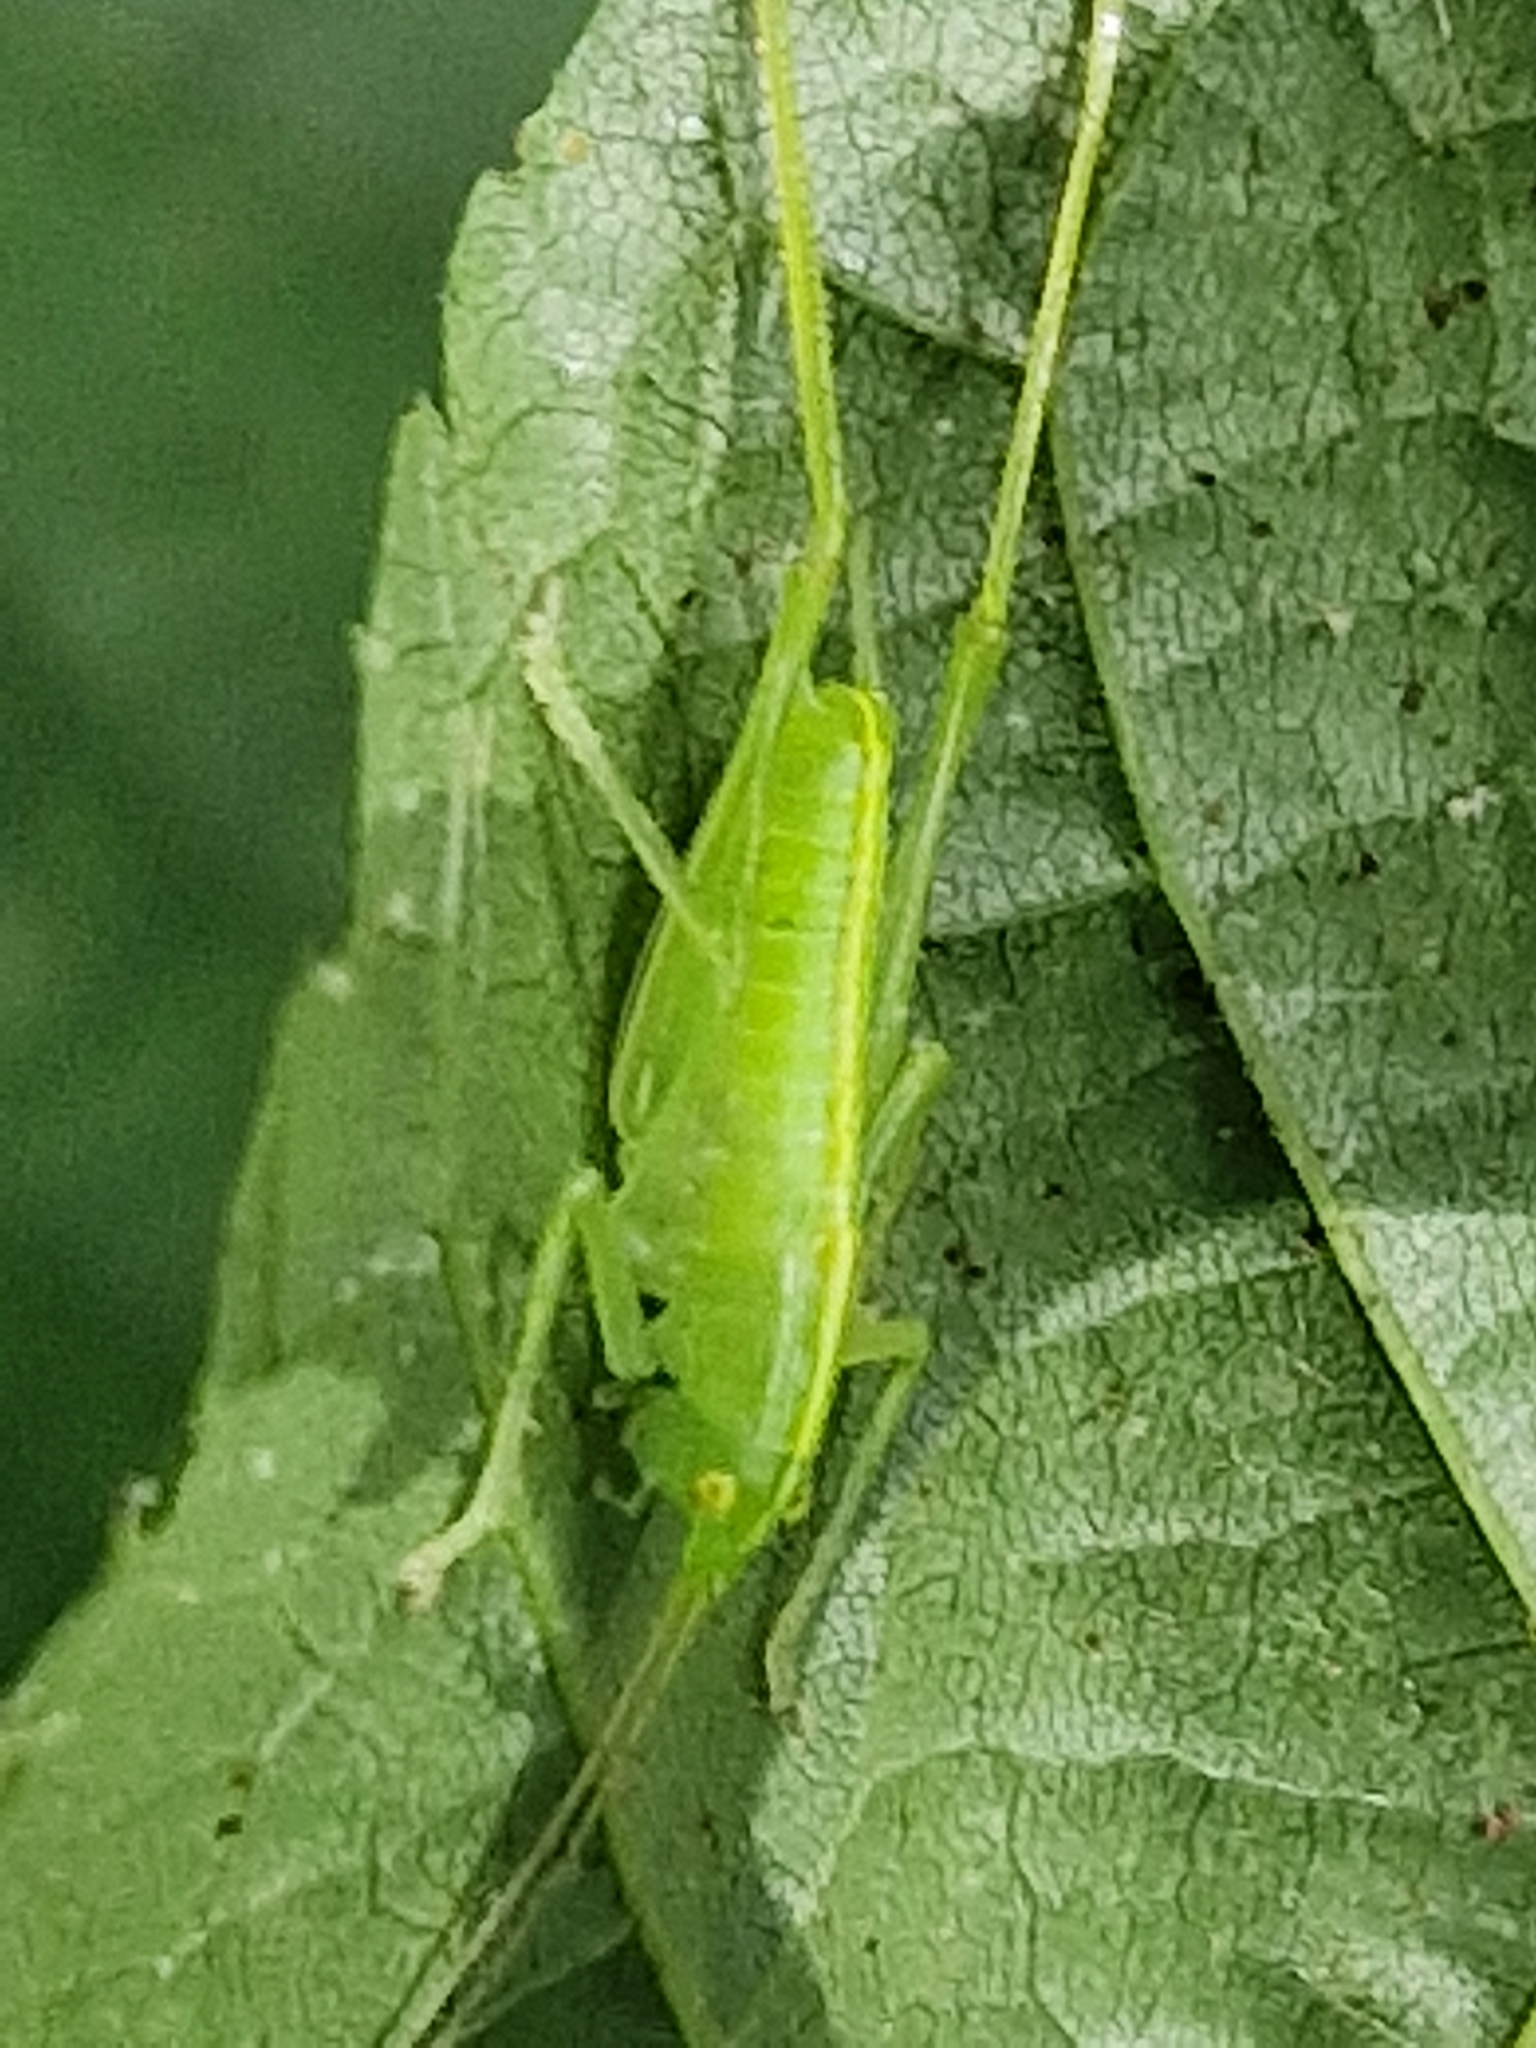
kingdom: Animalia
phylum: Arthropoda
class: Insecta
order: Orthoptera
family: Tettigoniidae
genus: Meconema
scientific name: Meconema meridionale
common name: Southern oak bush-cricket
